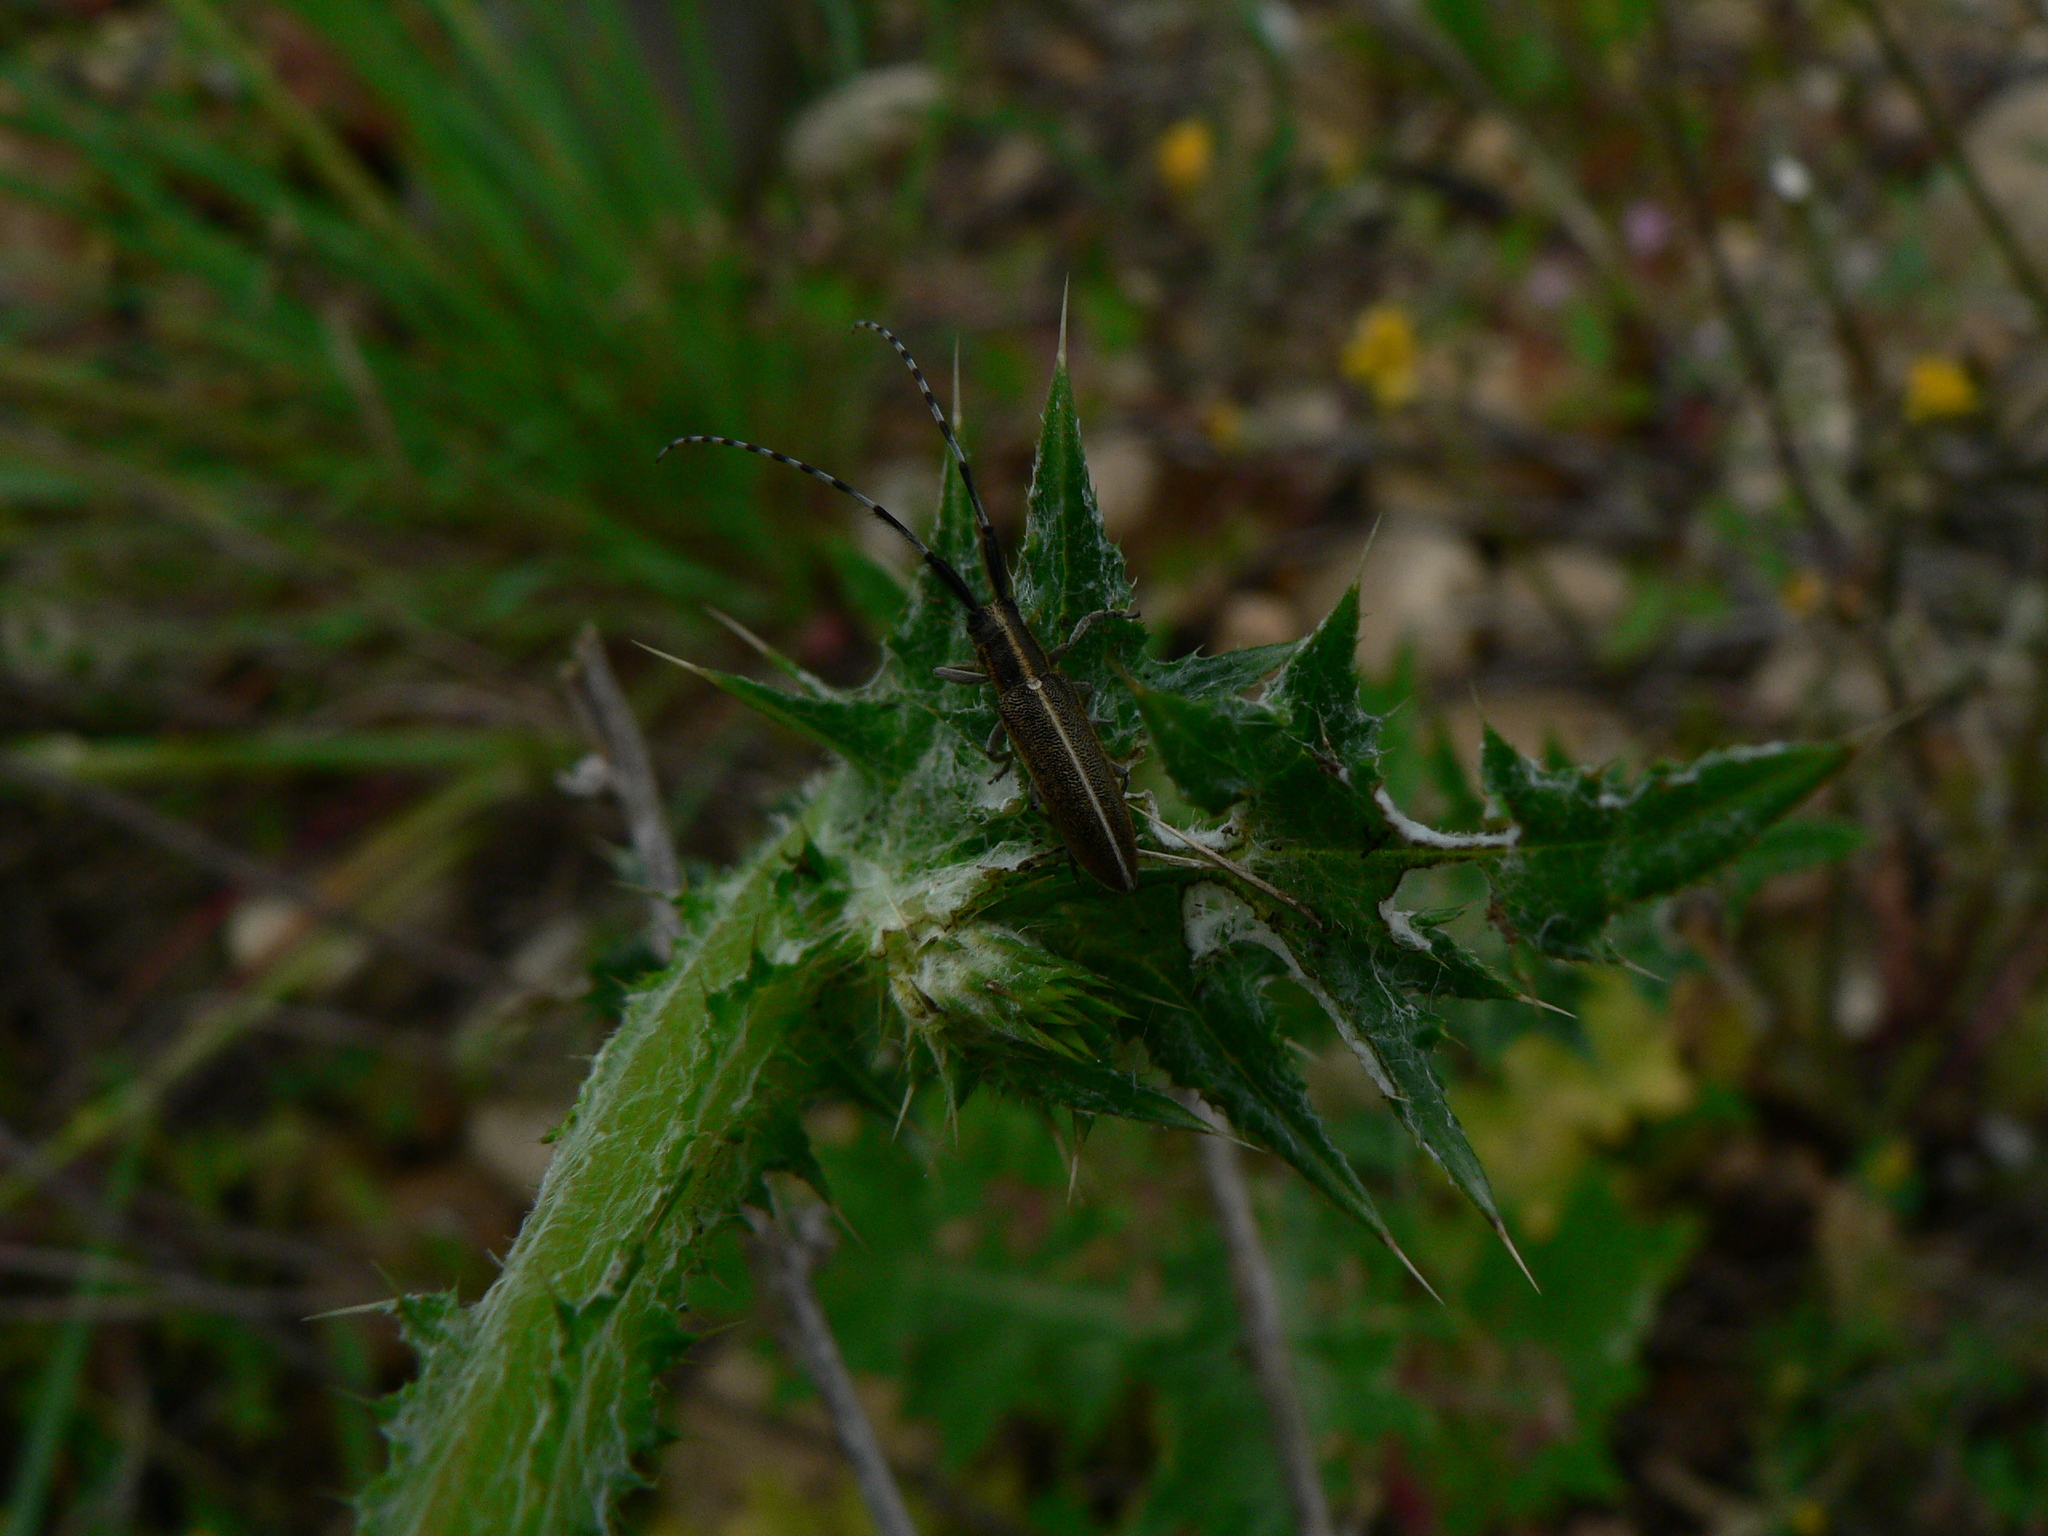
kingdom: Animalia
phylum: Arthropoda
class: Insecta
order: Coleoptera
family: Cerambycidae
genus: Agapanthia
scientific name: Agapanthia cardui
